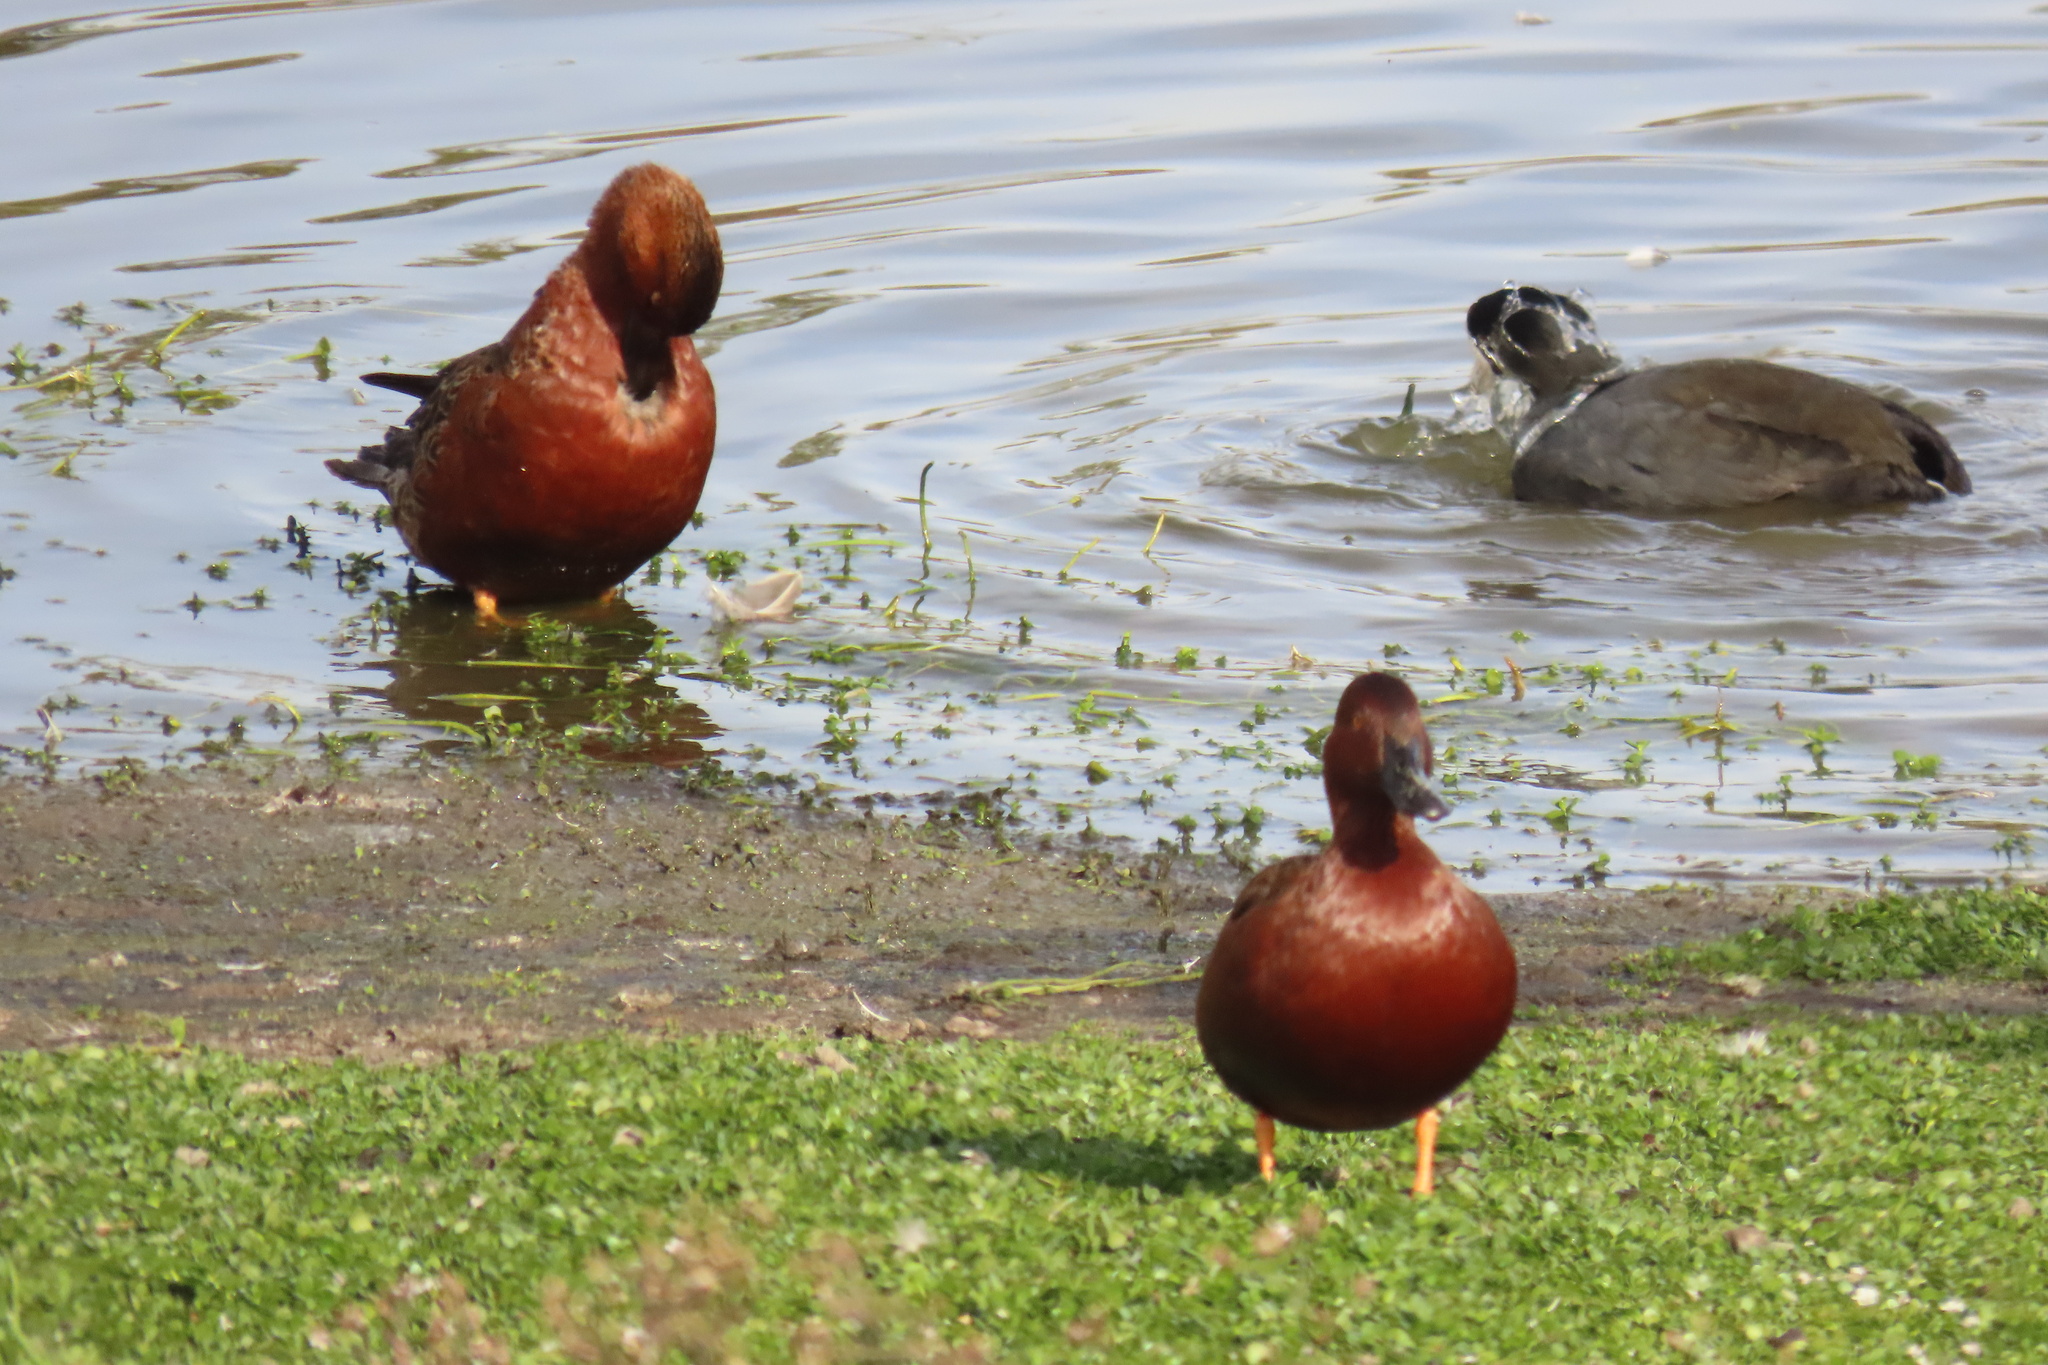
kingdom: Animalia
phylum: Chordata
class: Aves
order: Anseriformes
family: Anatidae
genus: Spatula
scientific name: Spatula cyanoptera
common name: Cinnamon teal
